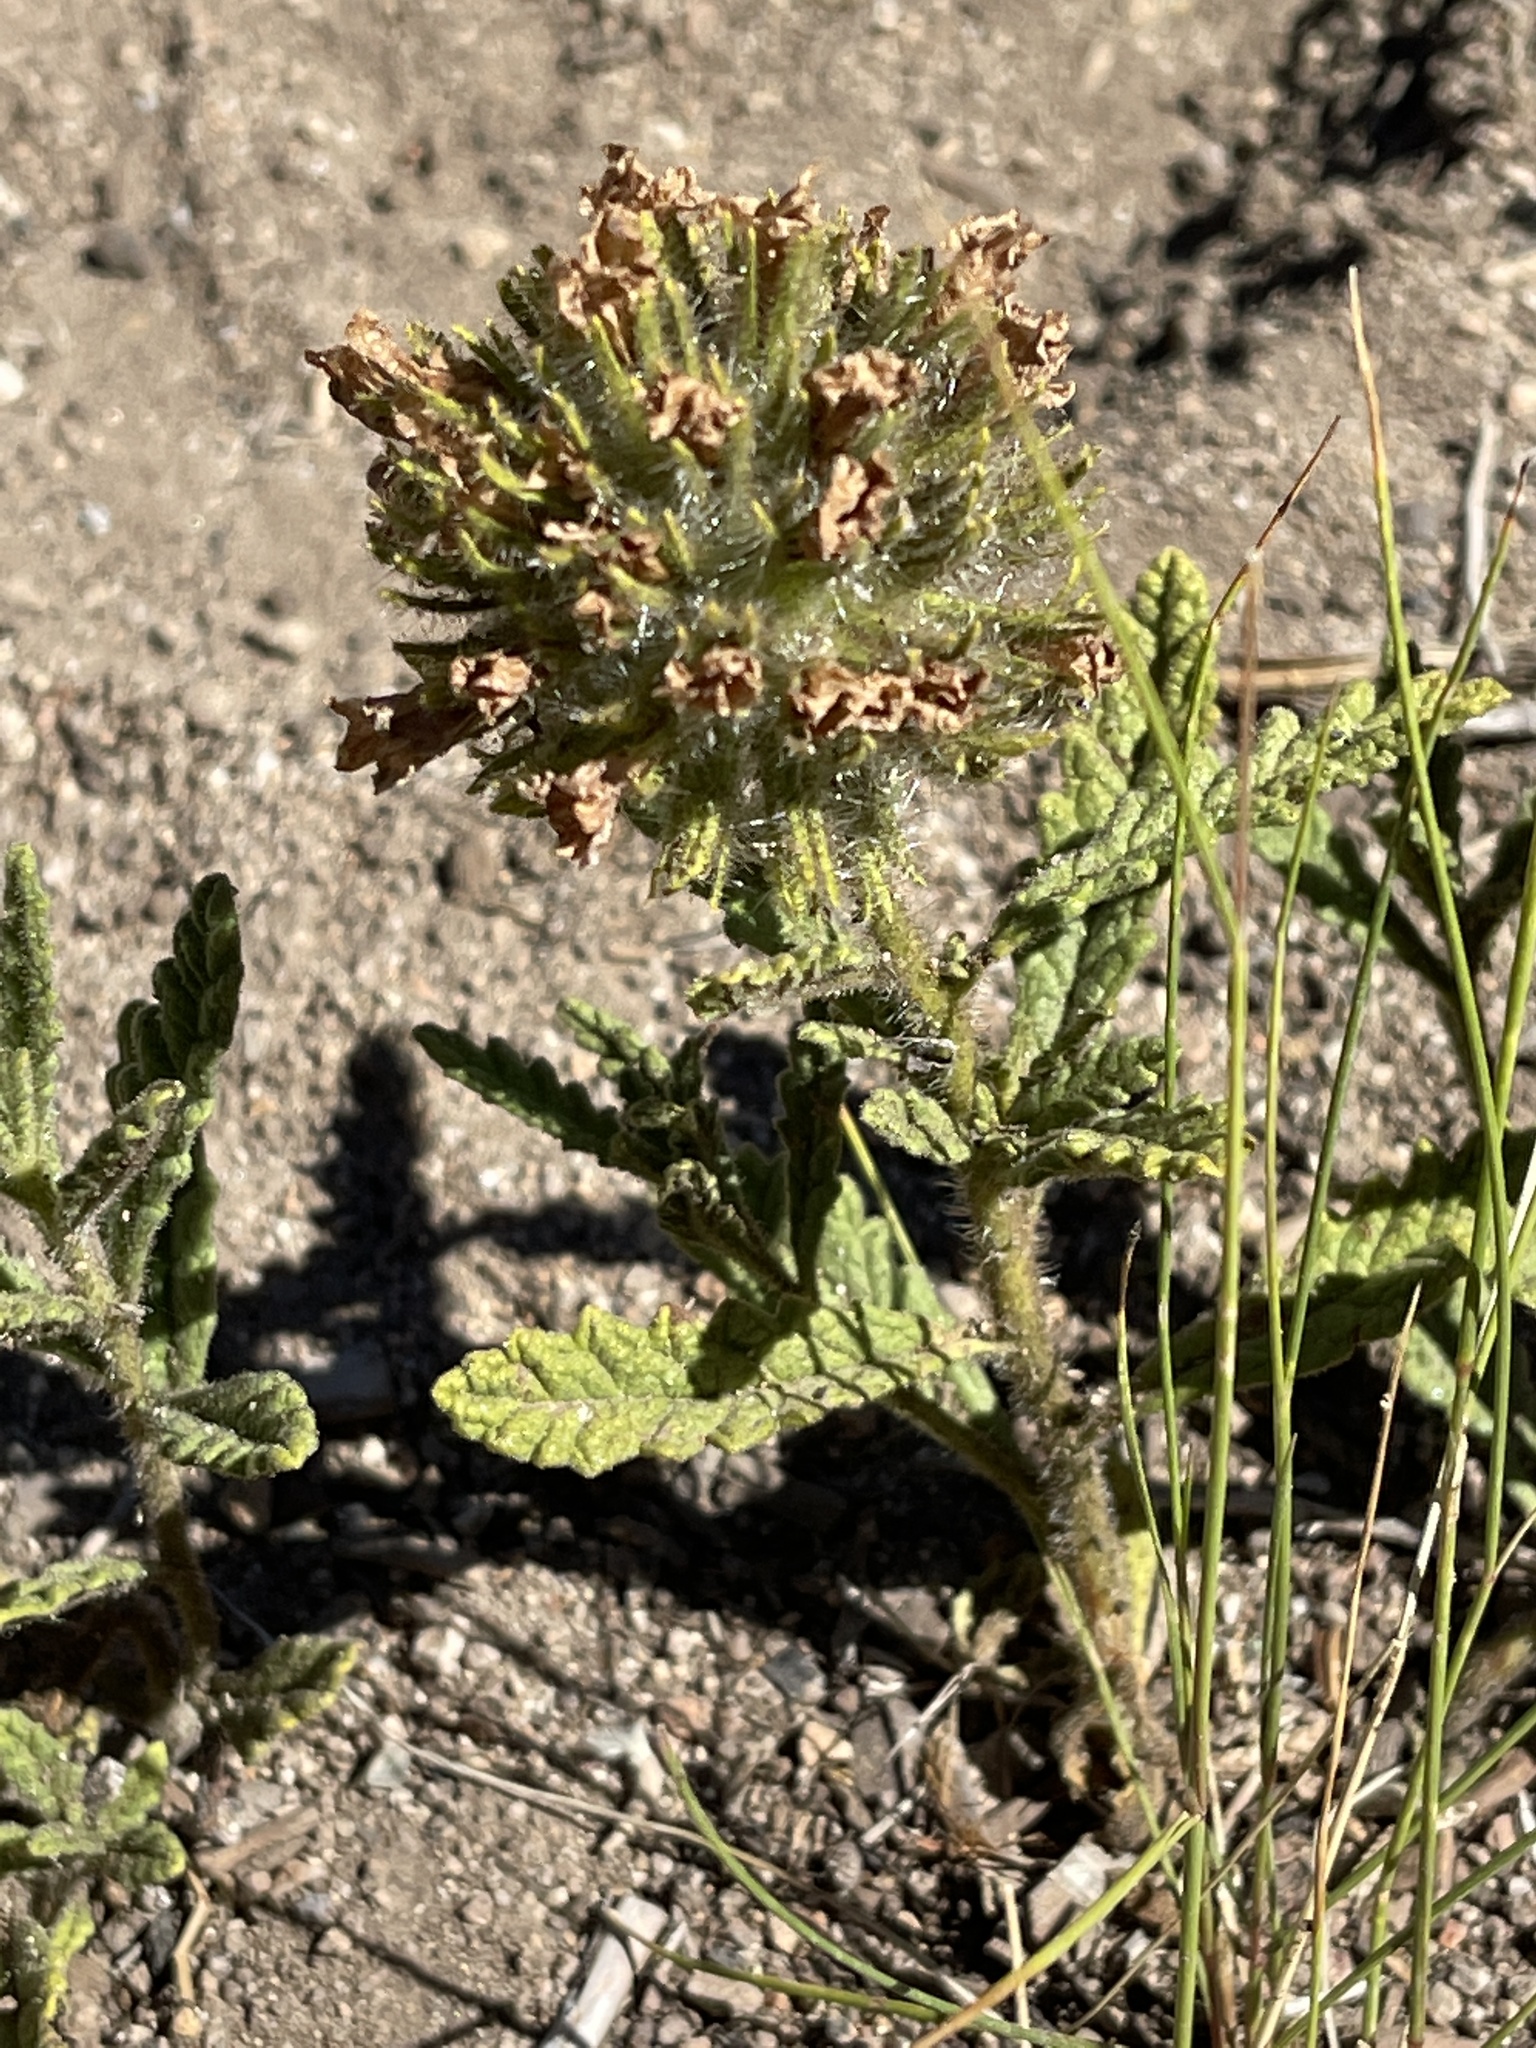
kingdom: Plantae
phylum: Tracheophyta
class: Magnoliopsida
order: Boraginales
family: Namaceae
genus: Nama
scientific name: Nama rothrockii
